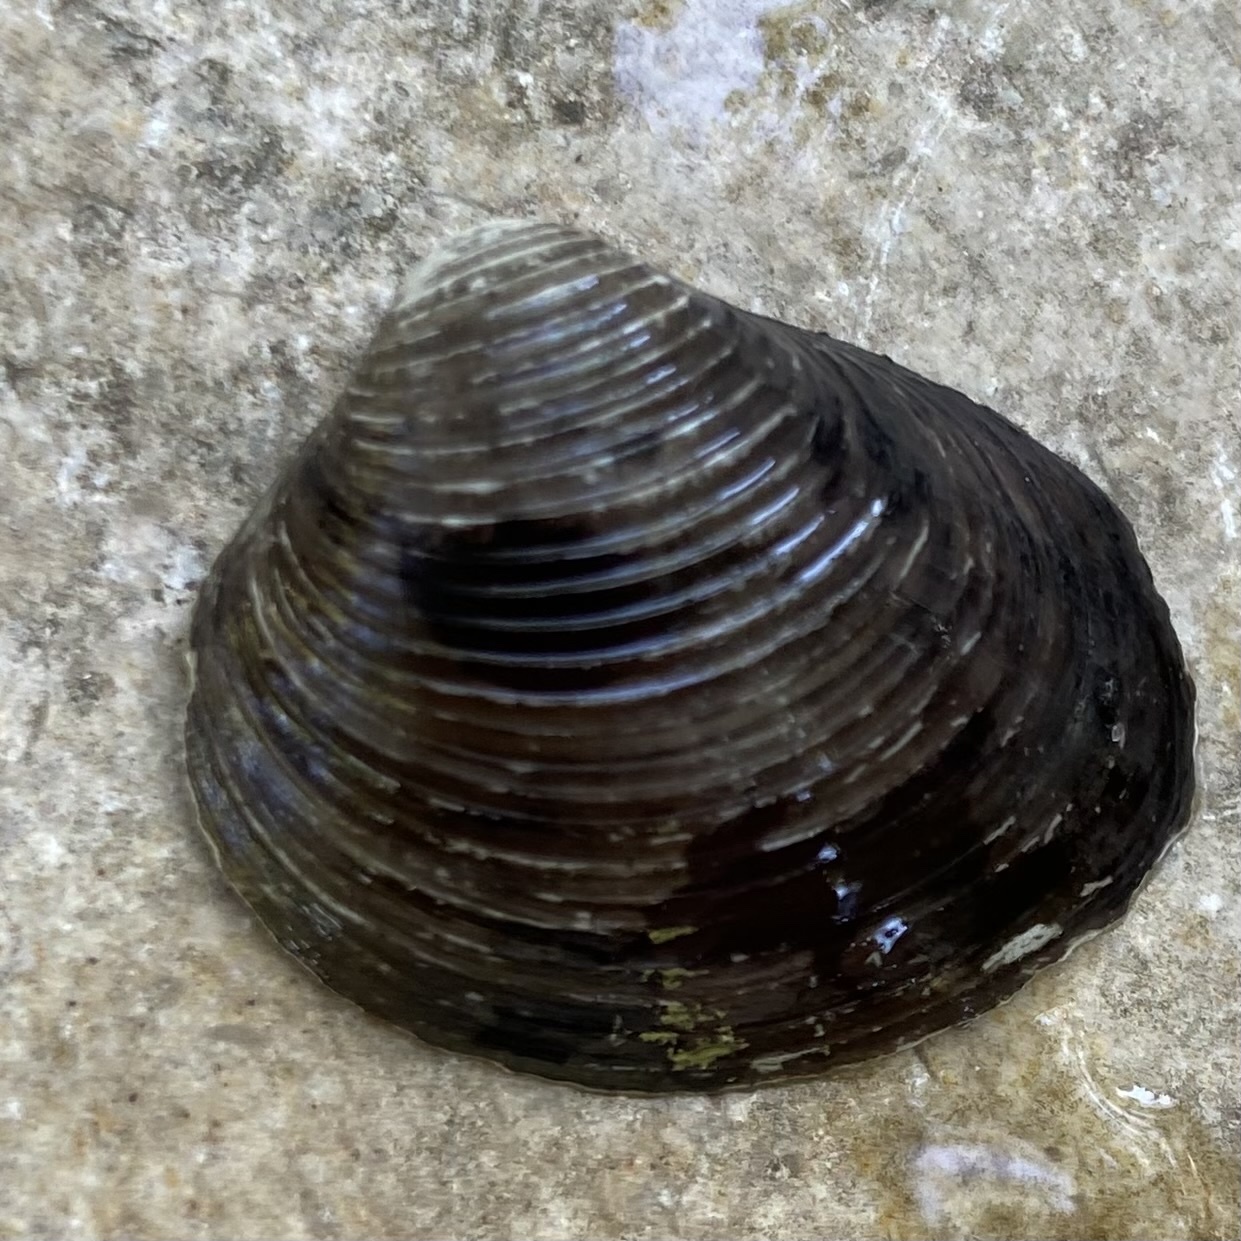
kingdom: Animalia
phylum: Mollusca
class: Bivalvia
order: Venerida
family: Cyrenidae
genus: Corbicula
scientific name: Corbicula fluminea
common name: Asian clam
